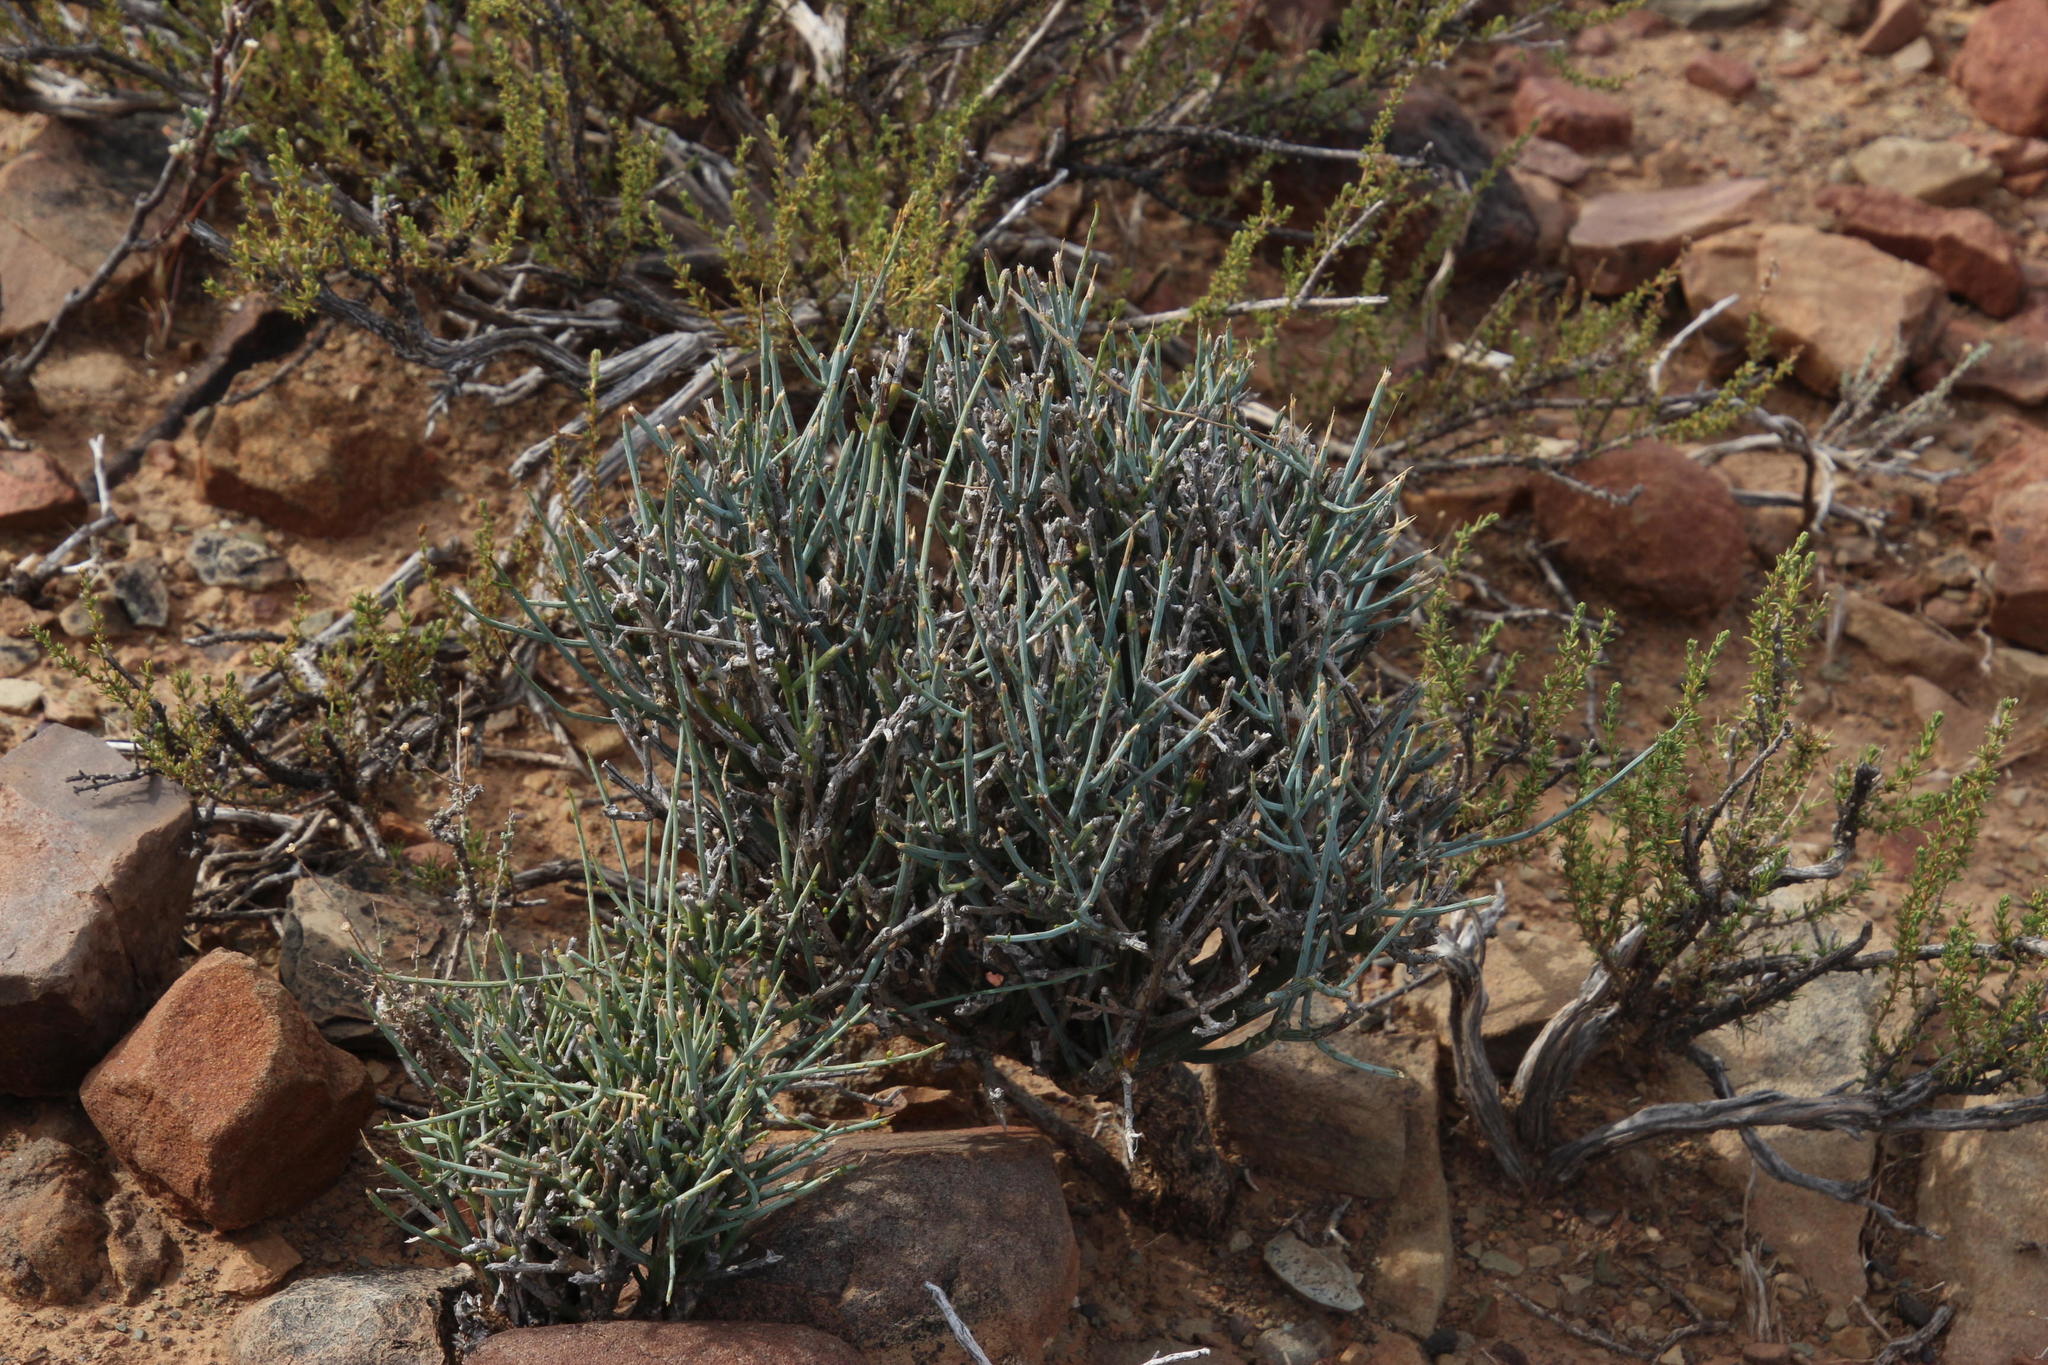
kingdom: Plantae
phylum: Tracheophyta
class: Magnoliopsida
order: Santalales
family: Thesiaceae
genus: Lacomucinaea
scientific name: Lacomucinaea lineata
